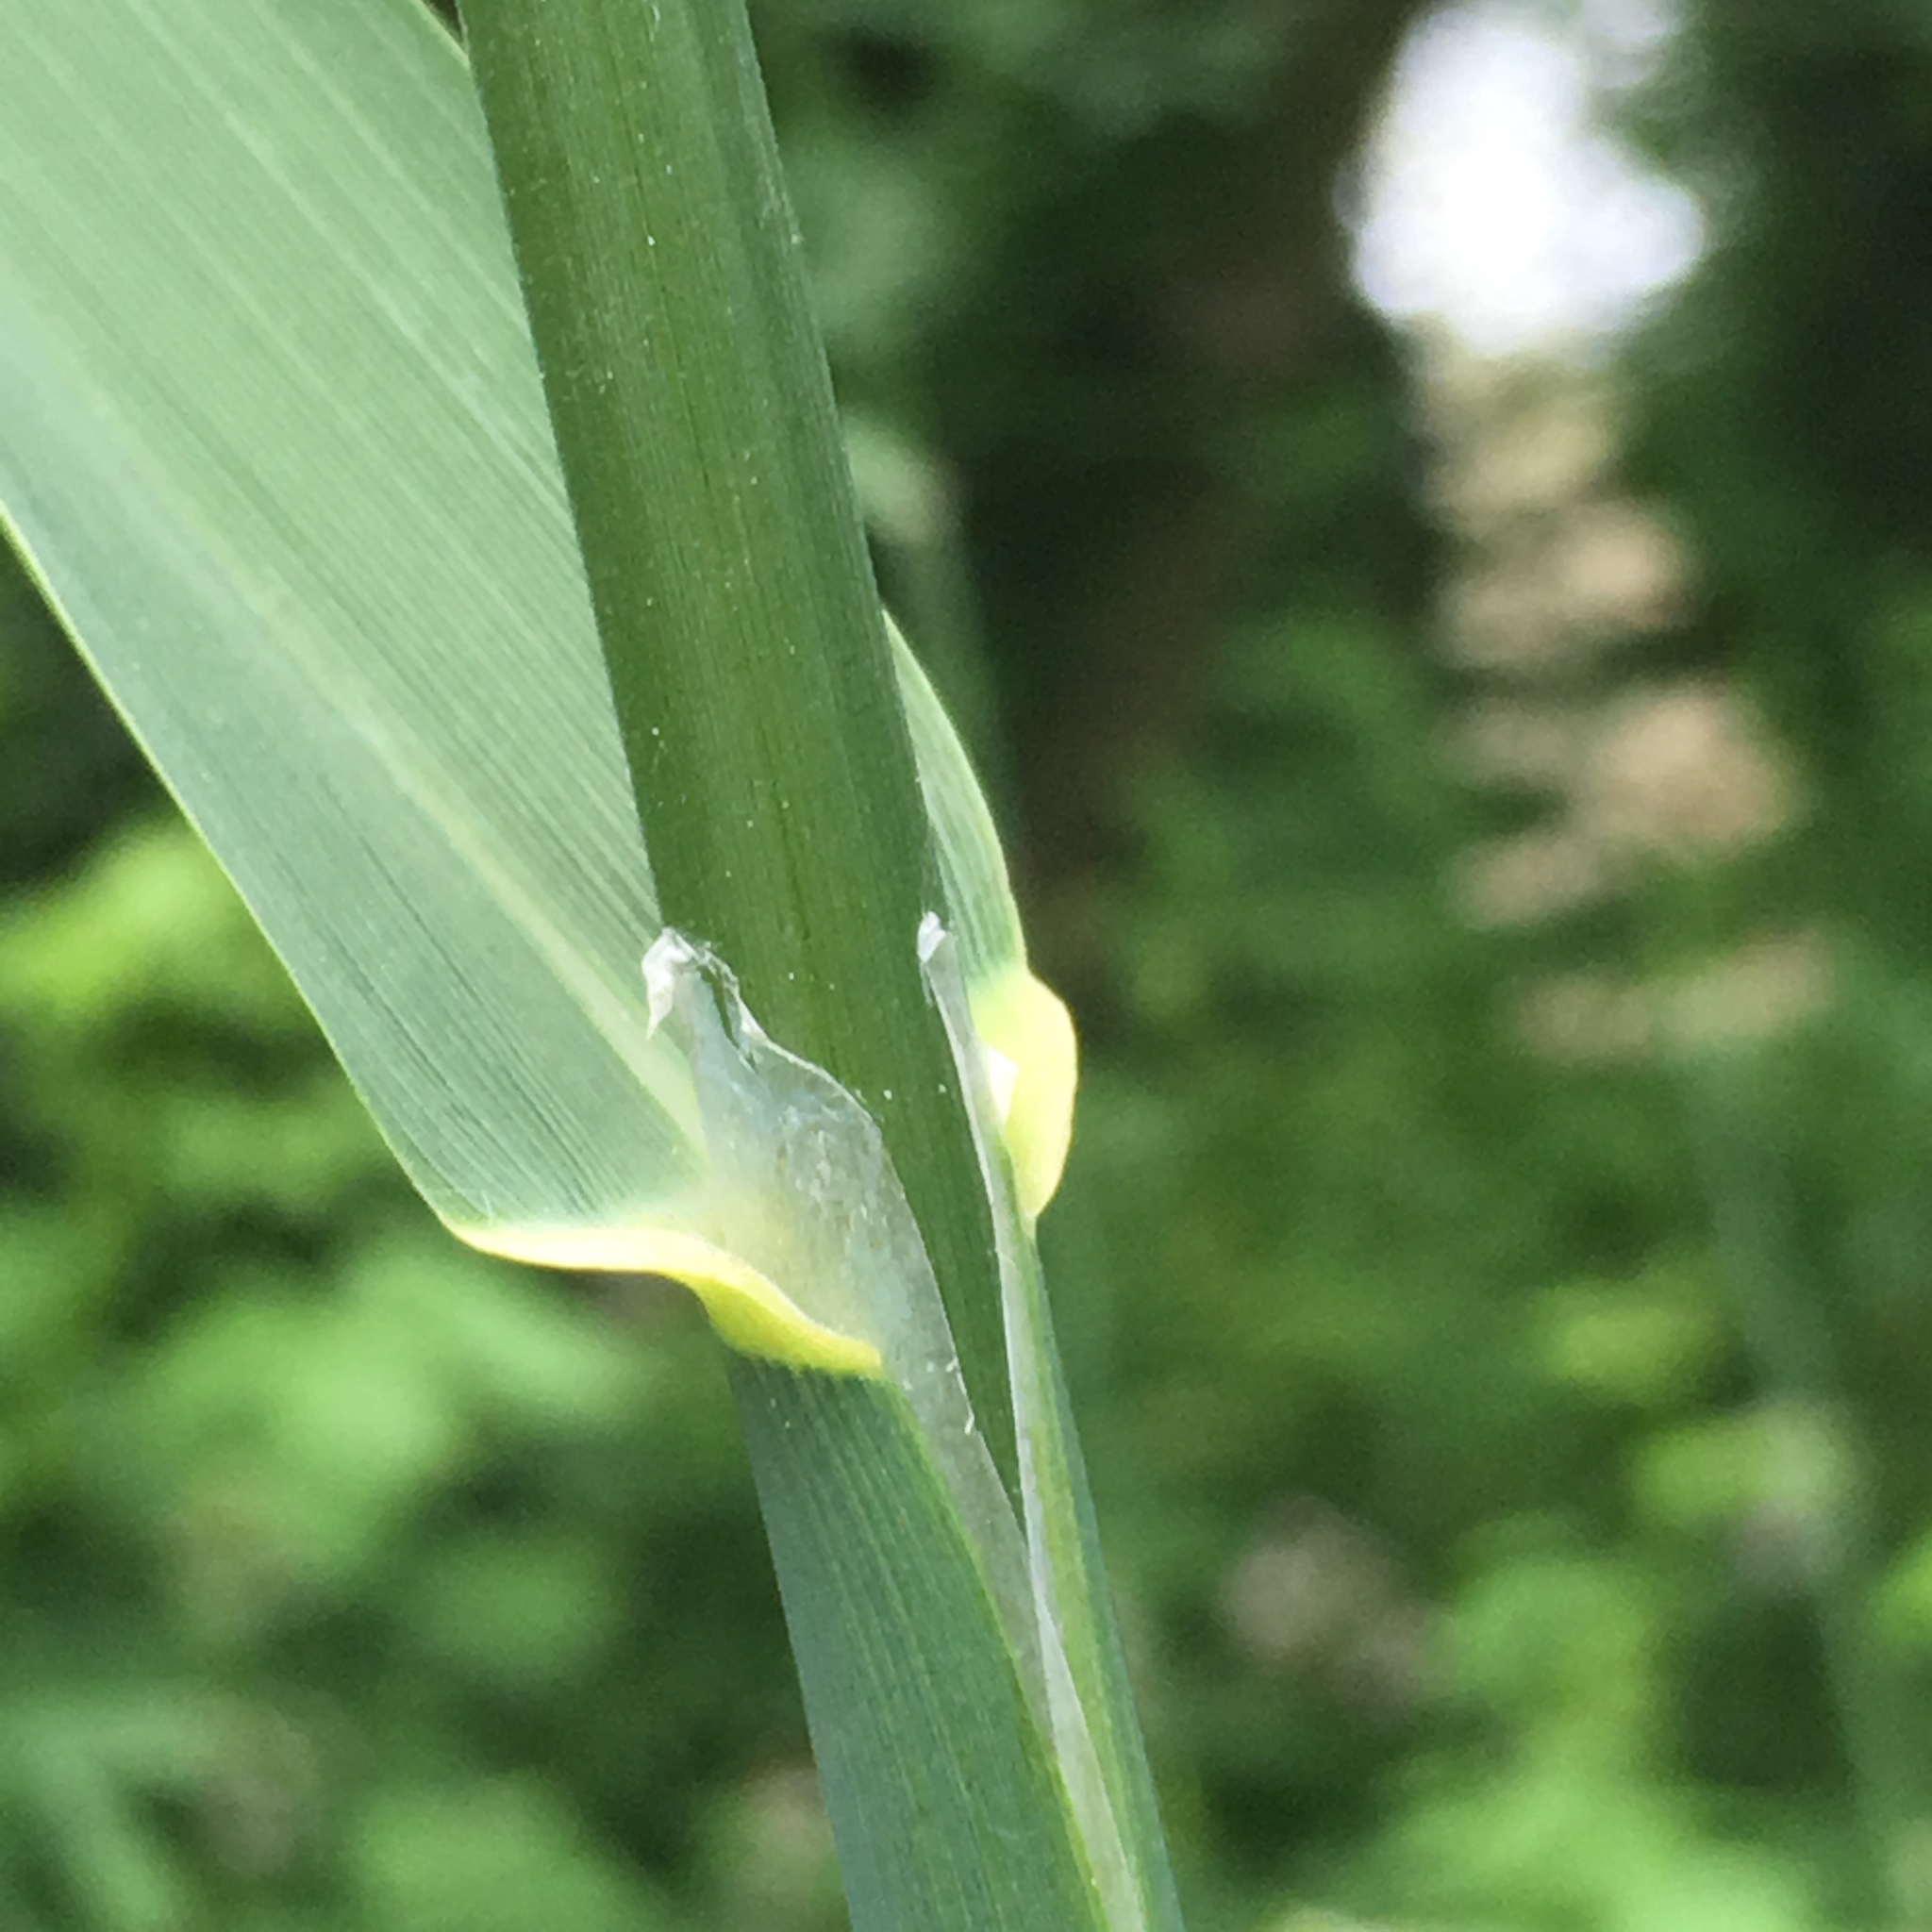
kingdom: Plantae
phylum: Tracheophyta
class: Liliopsida
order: Poales
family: Poaceae
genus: Phalaris
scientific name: Phalaris arundinacea
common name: Reed canary-grass
